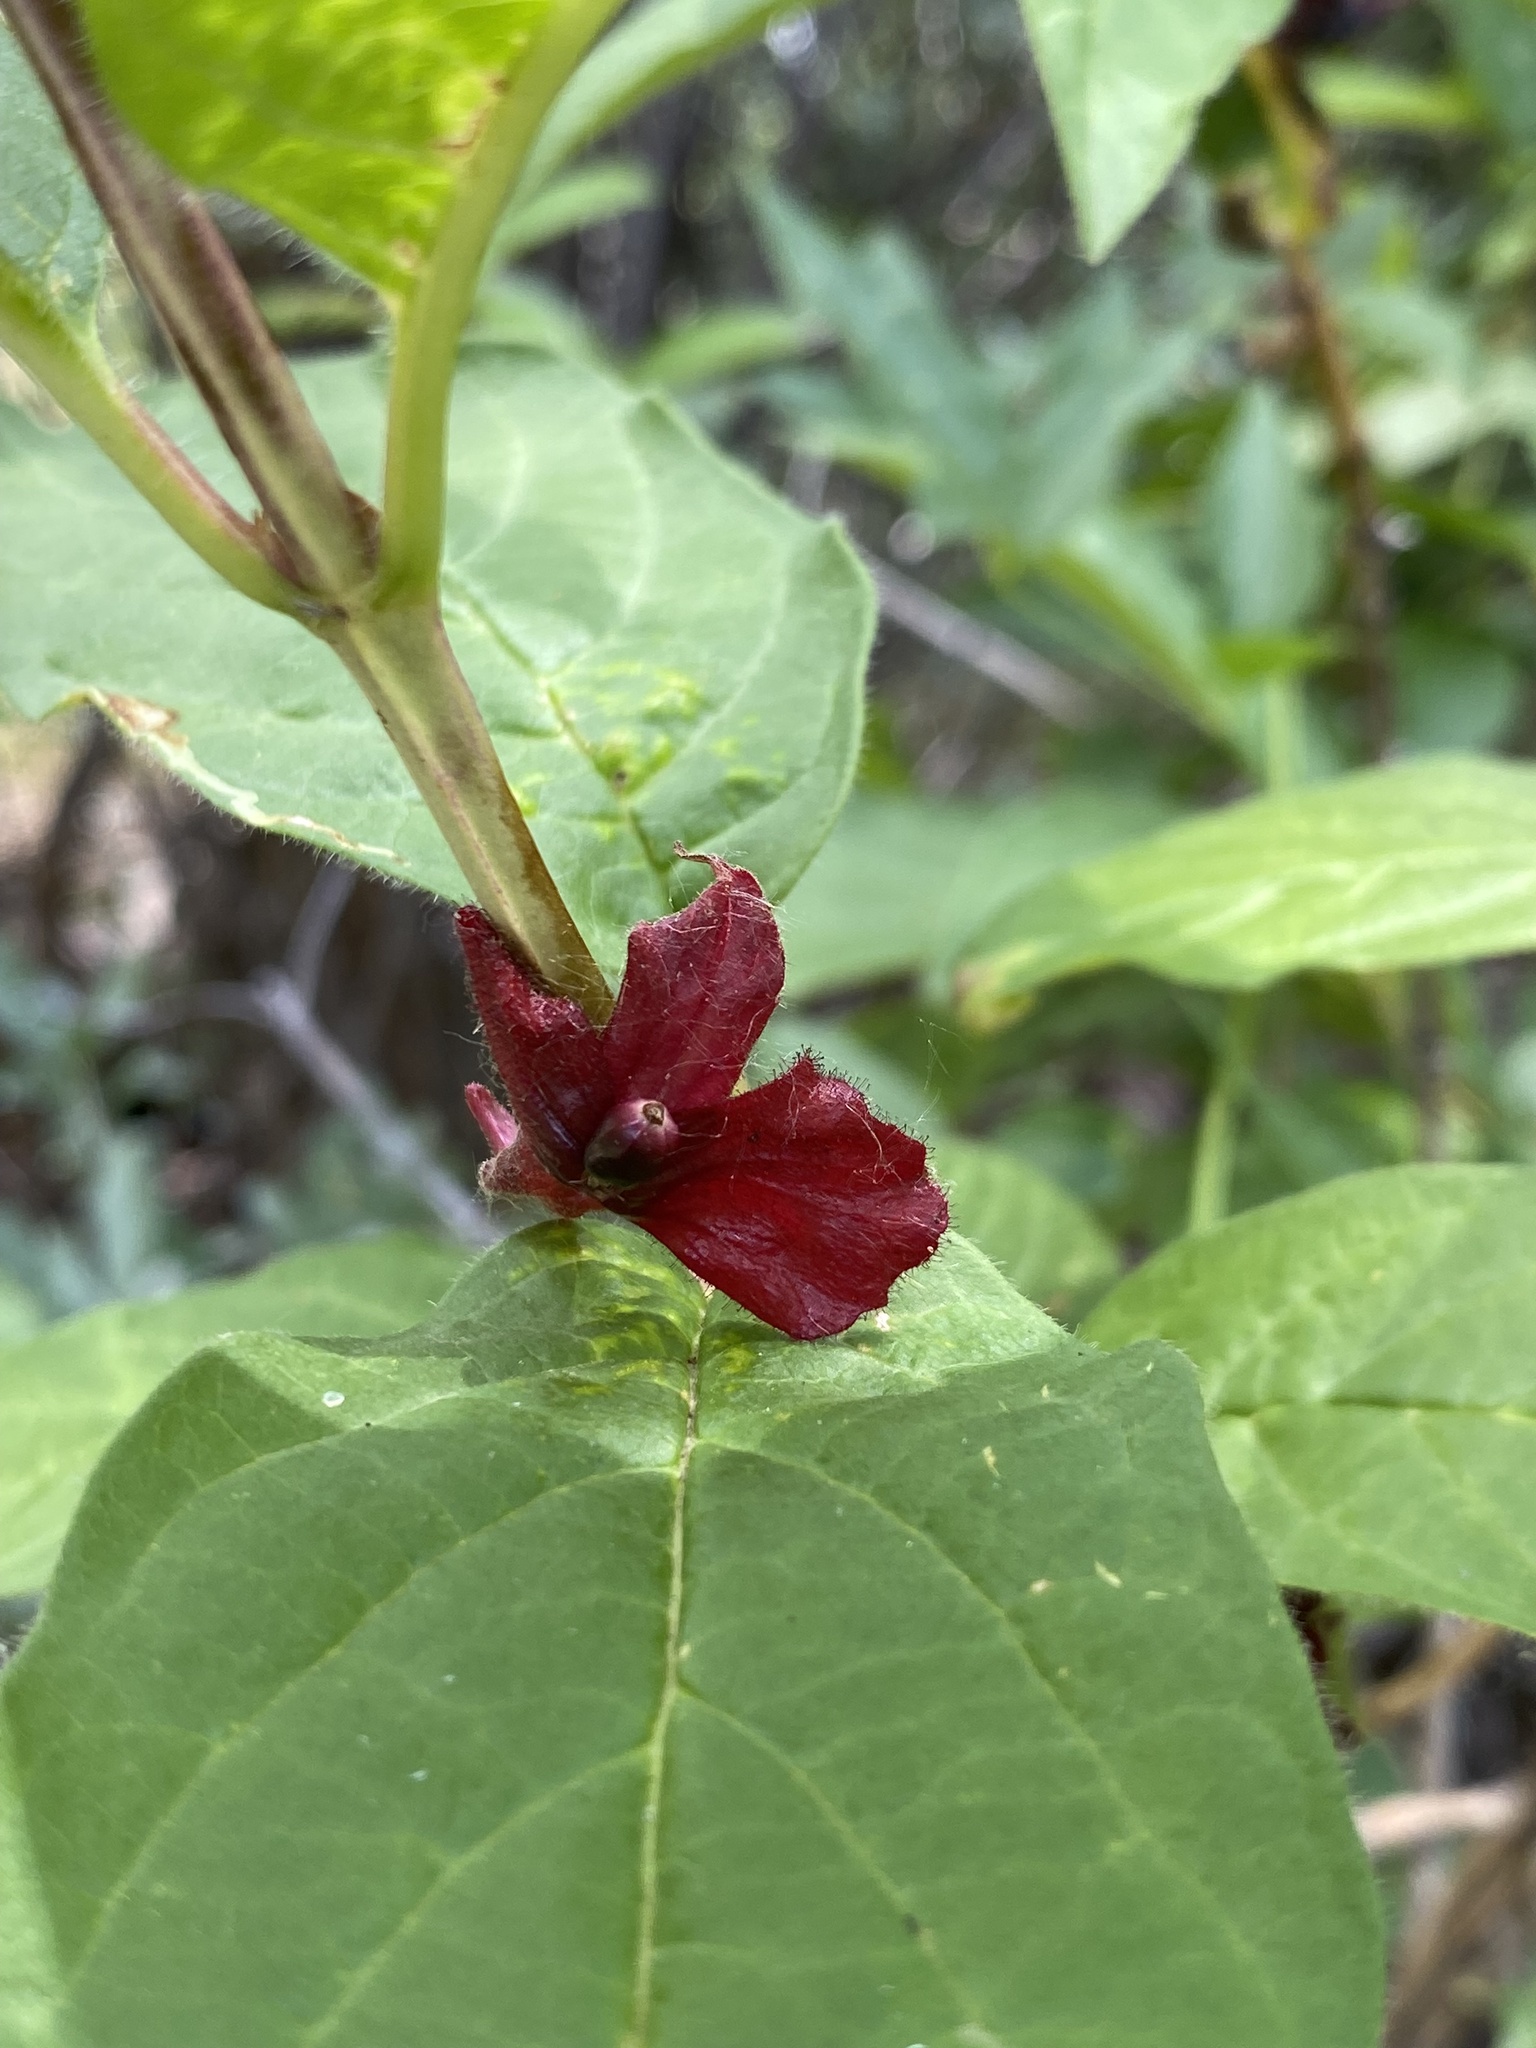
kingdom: Plantae
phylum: Tracheophyta
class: Magnoliopsida
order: Dipsacales
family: Caprifoliaceae
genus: Lonicera
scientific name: Lonicera involucrata
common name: Californian honeysuckle
